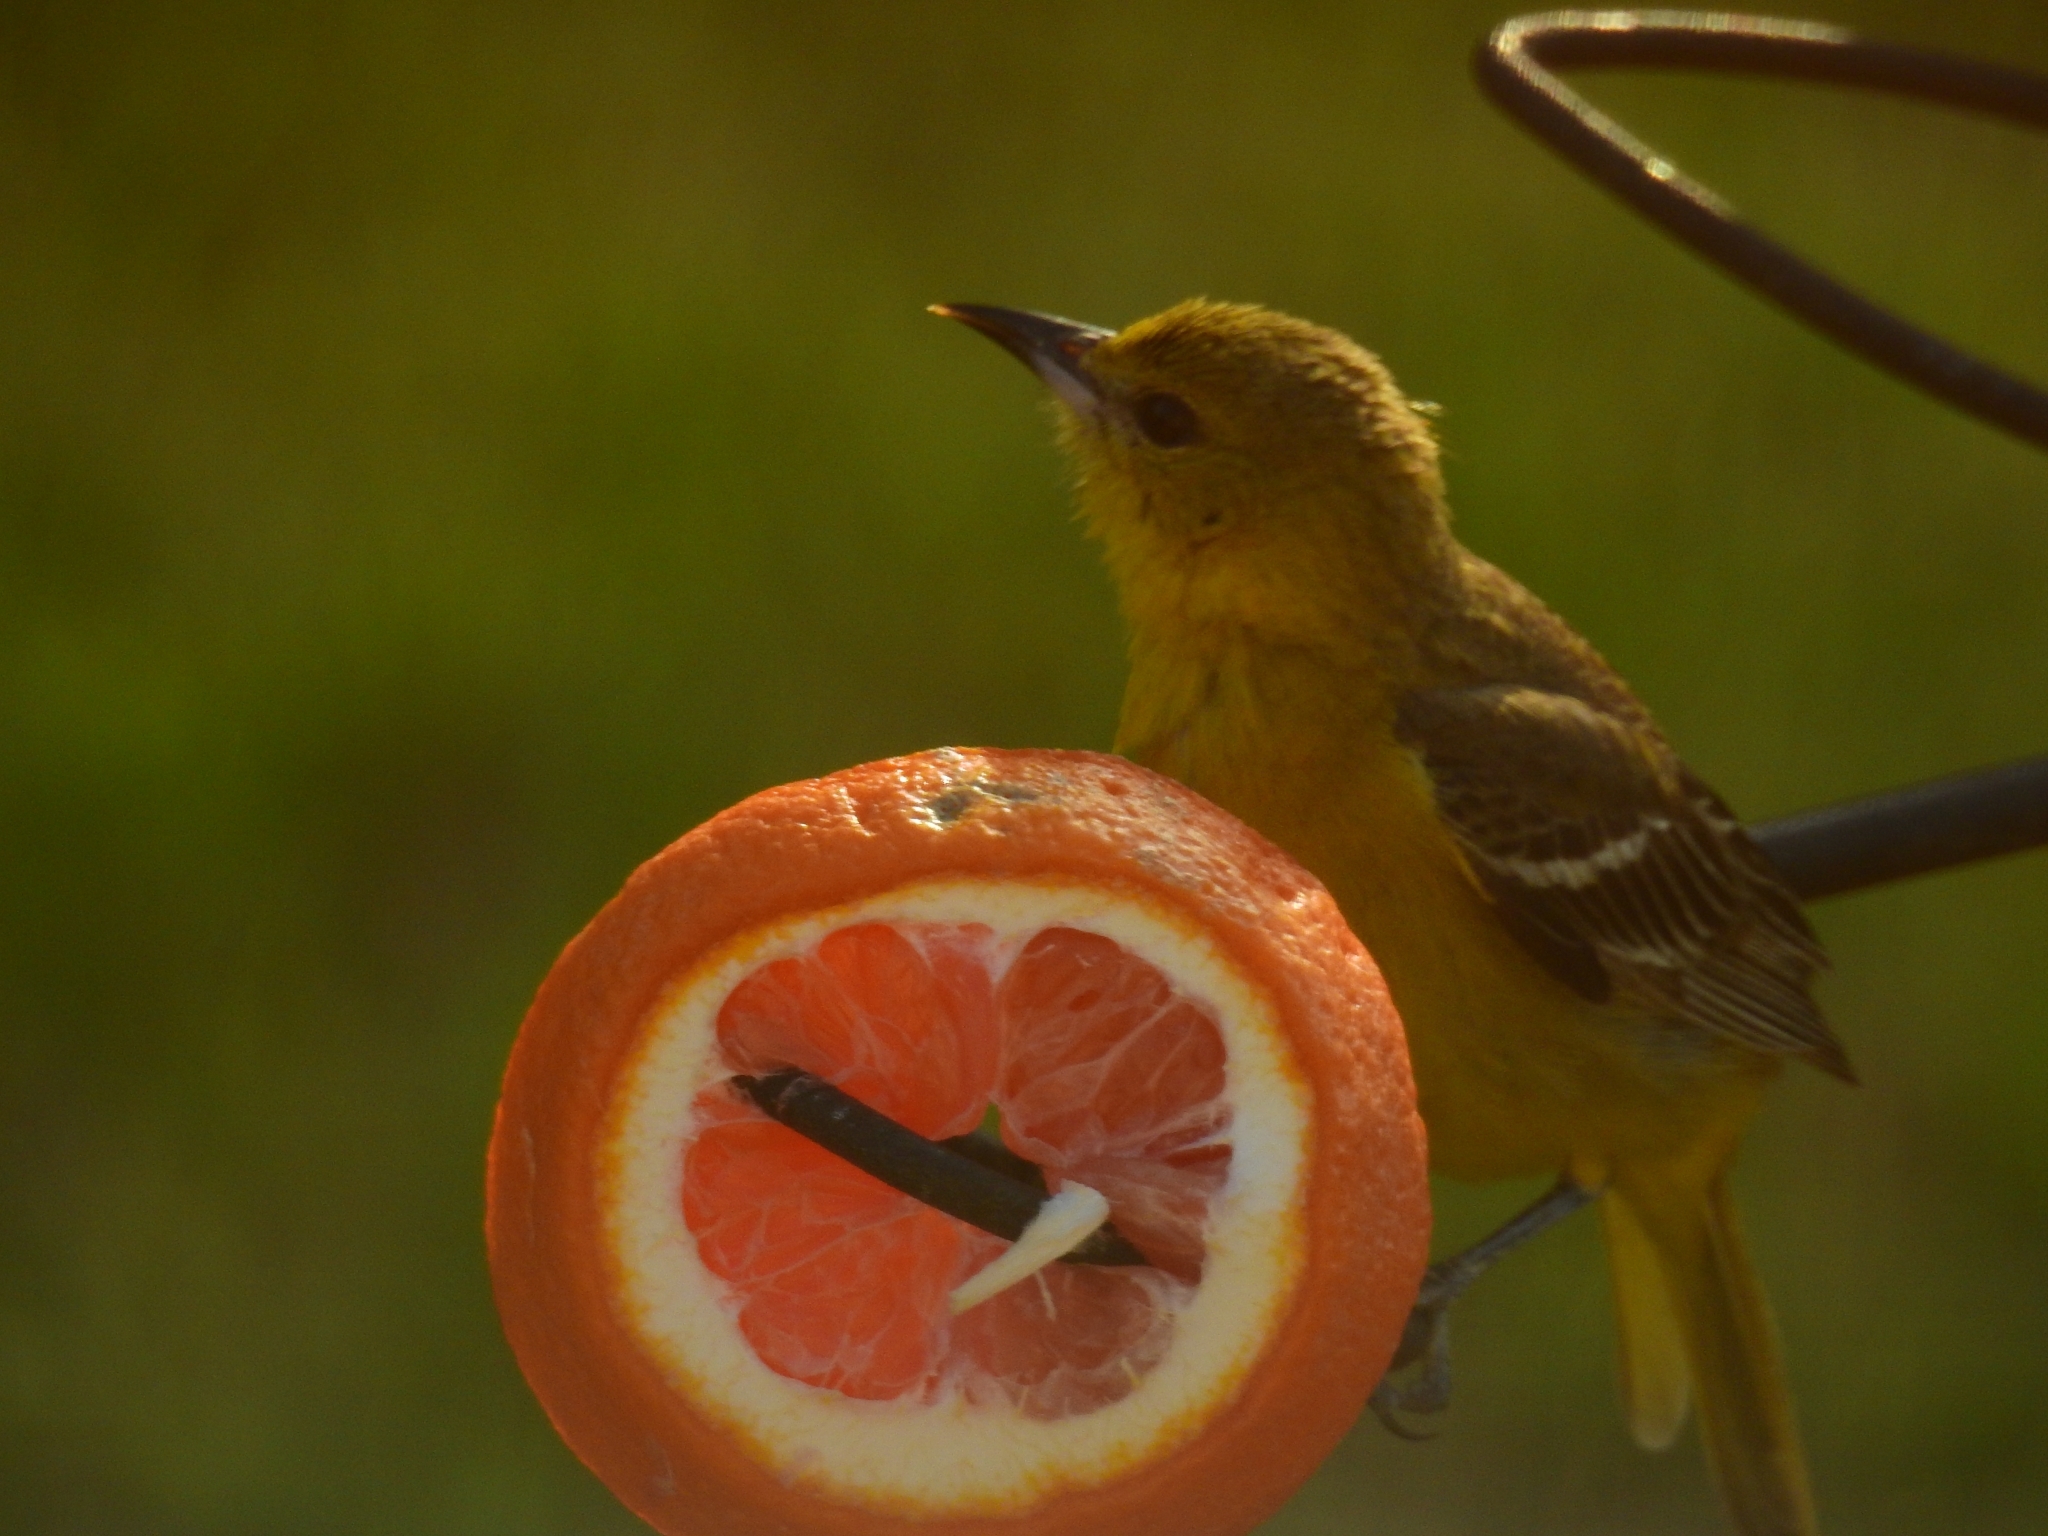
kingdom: Animalia
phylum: Chordata
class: Aves
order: Passeriformes
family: Icteridae
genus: Icterus
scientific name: Icterus spurius
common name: Orchard oriole
